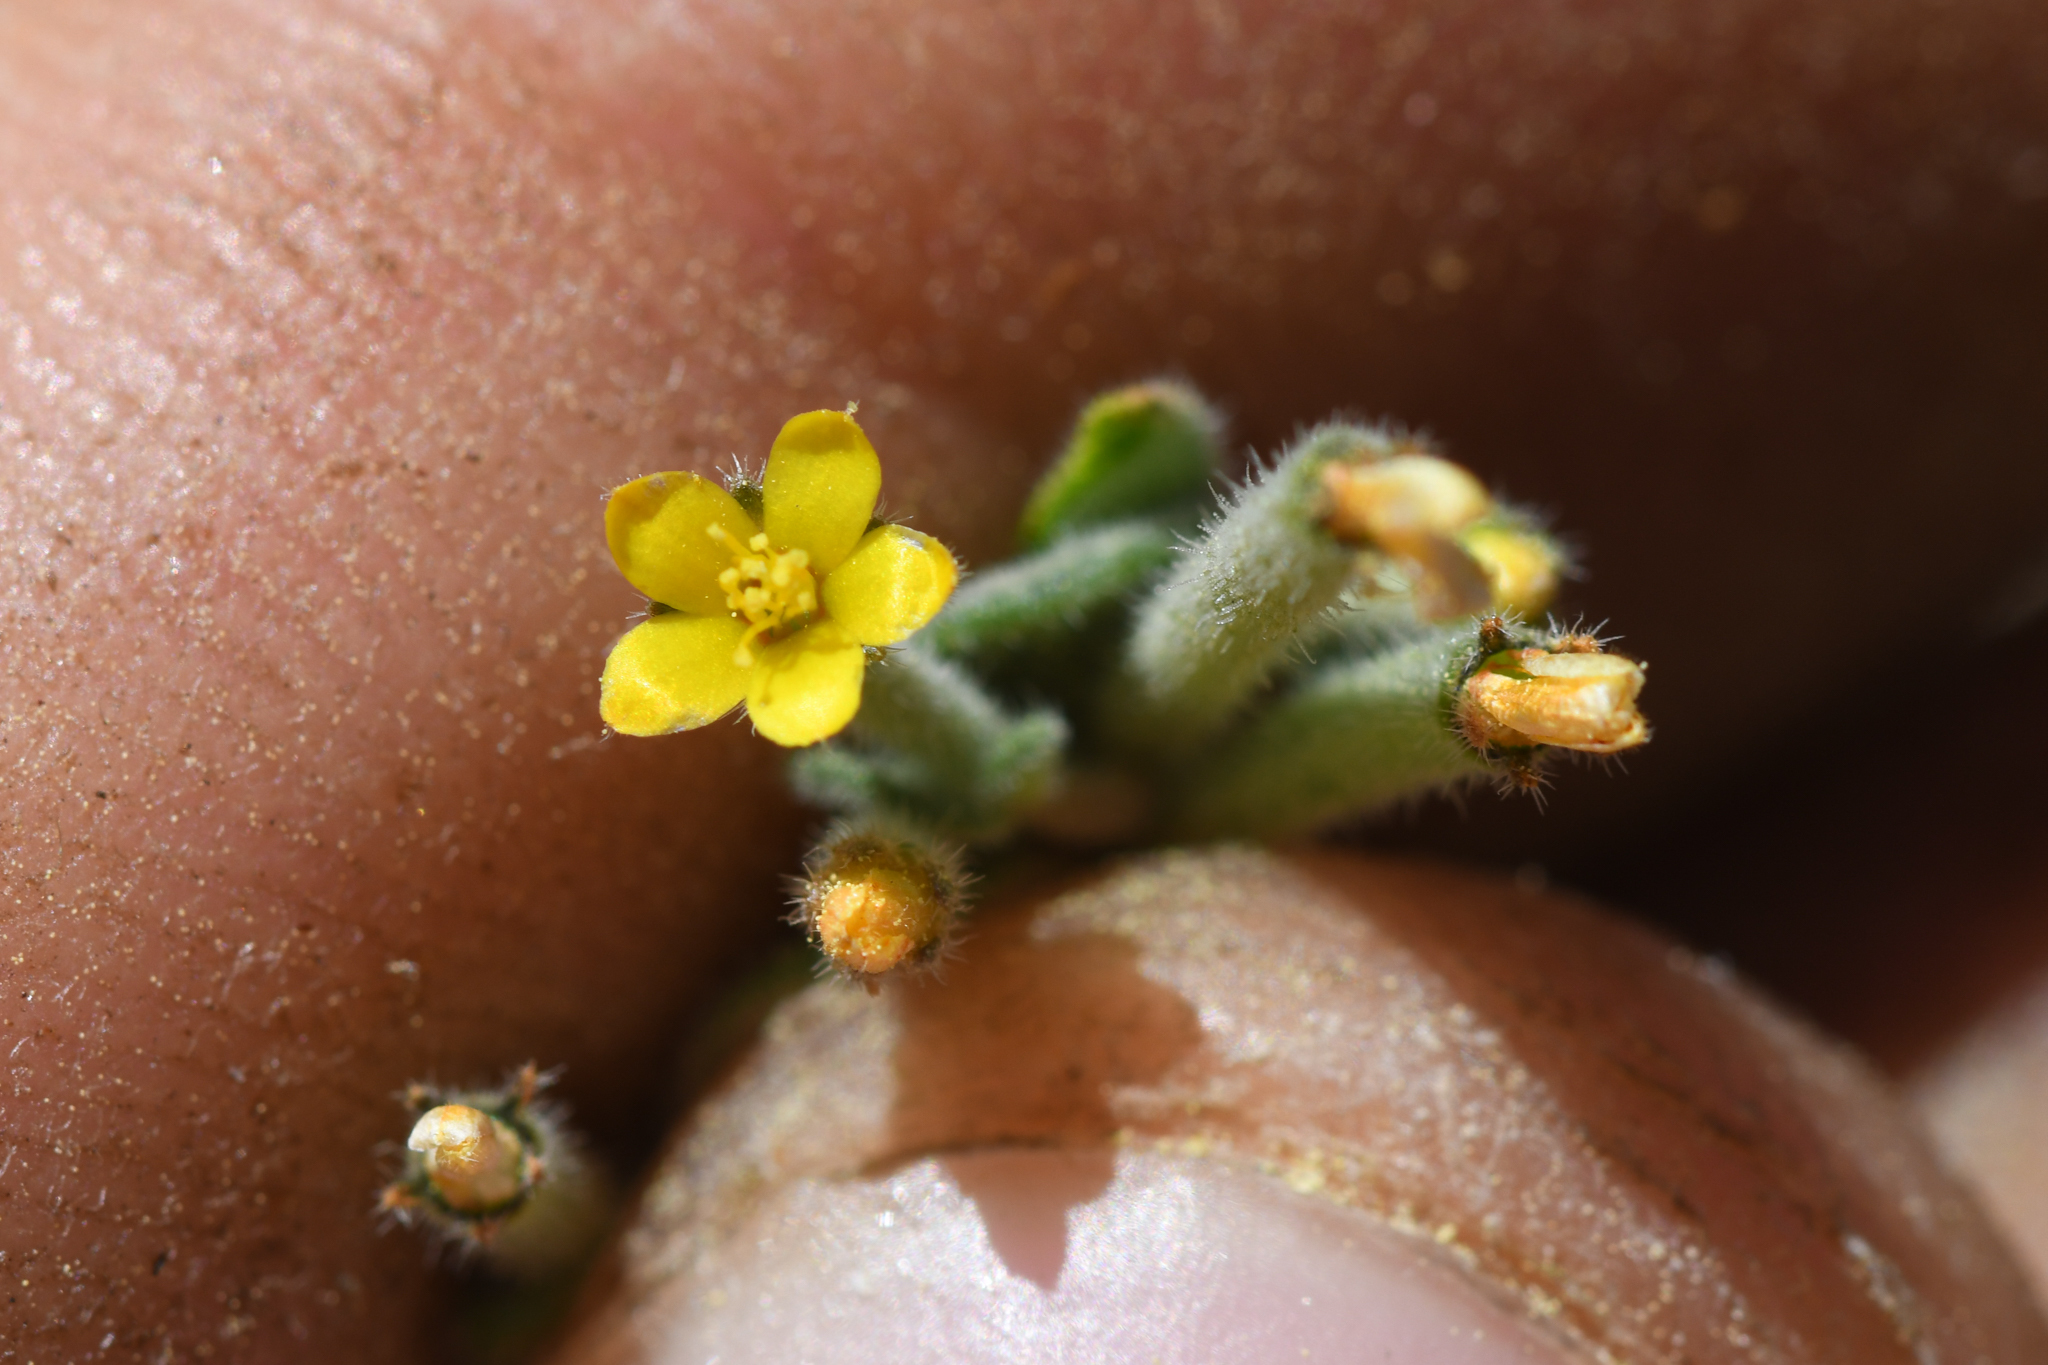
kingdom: Plantae
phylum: Tracheophyta
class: Magnoliopsida
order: Cornales
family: Loasaceae
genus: Mentzelia
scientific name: Mentzelia dispersa
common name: Nada stickleaf
